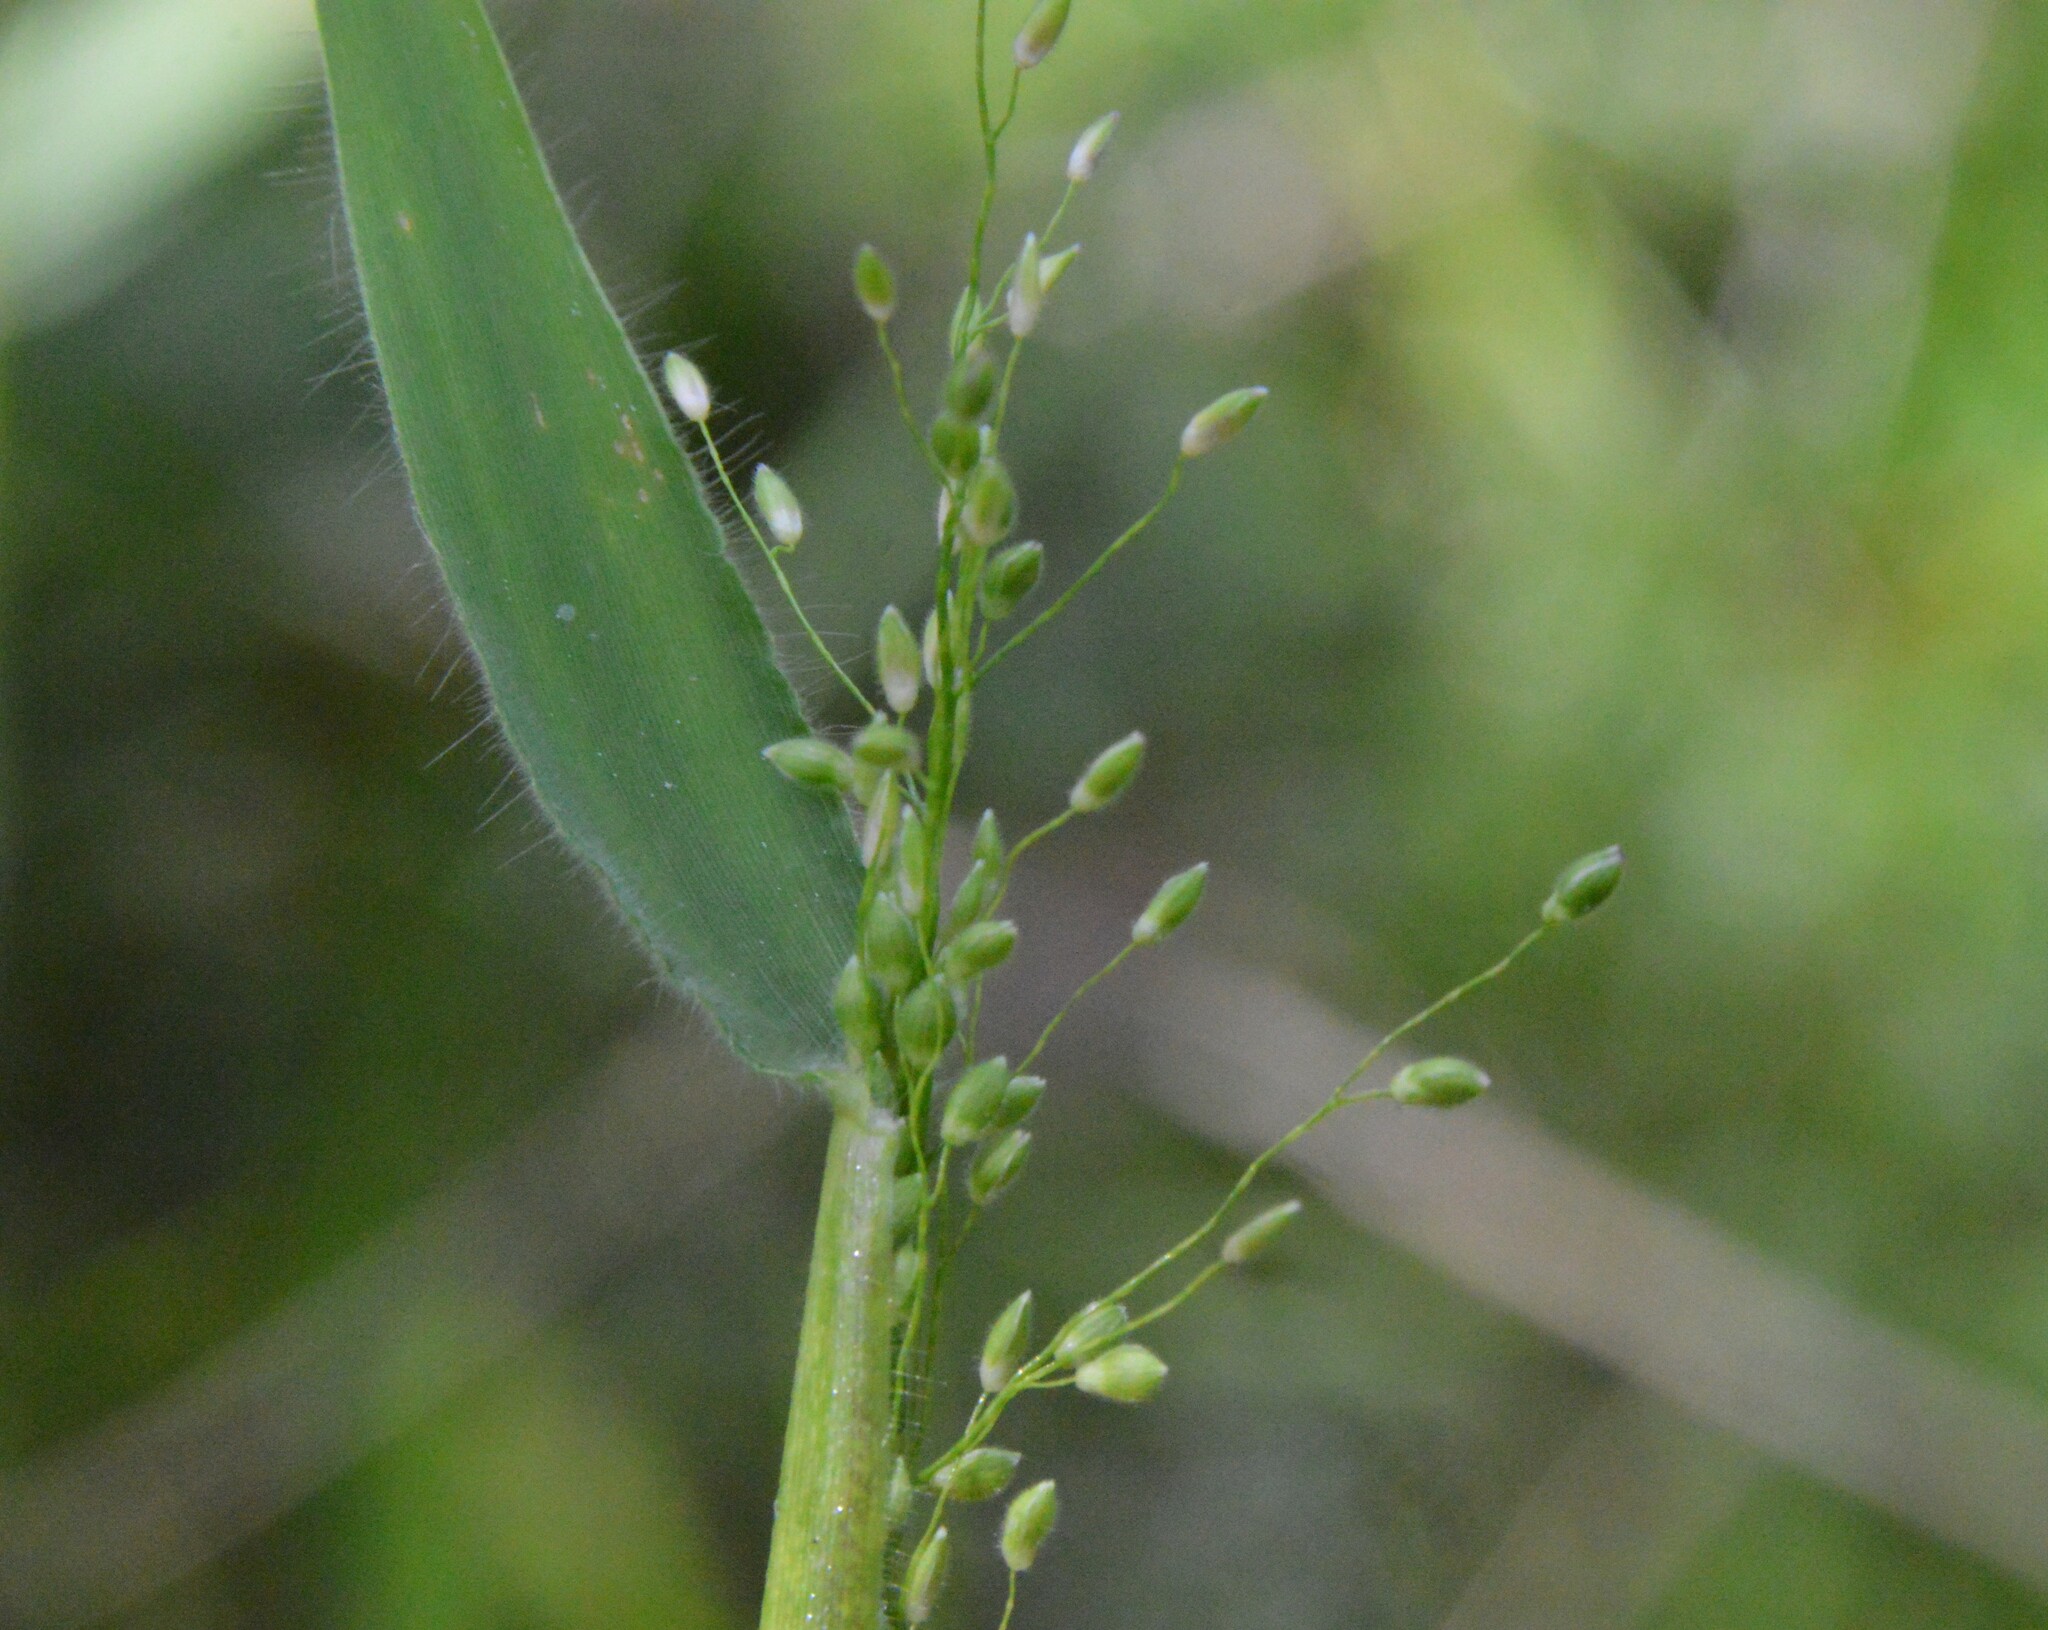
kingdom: Plantae
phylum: Tracheophyta
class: Liliopsida
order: Poales
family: Poaceae
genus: Dichanthelium
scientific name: Dichanthelium scoparium
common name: Velvety panic grass
